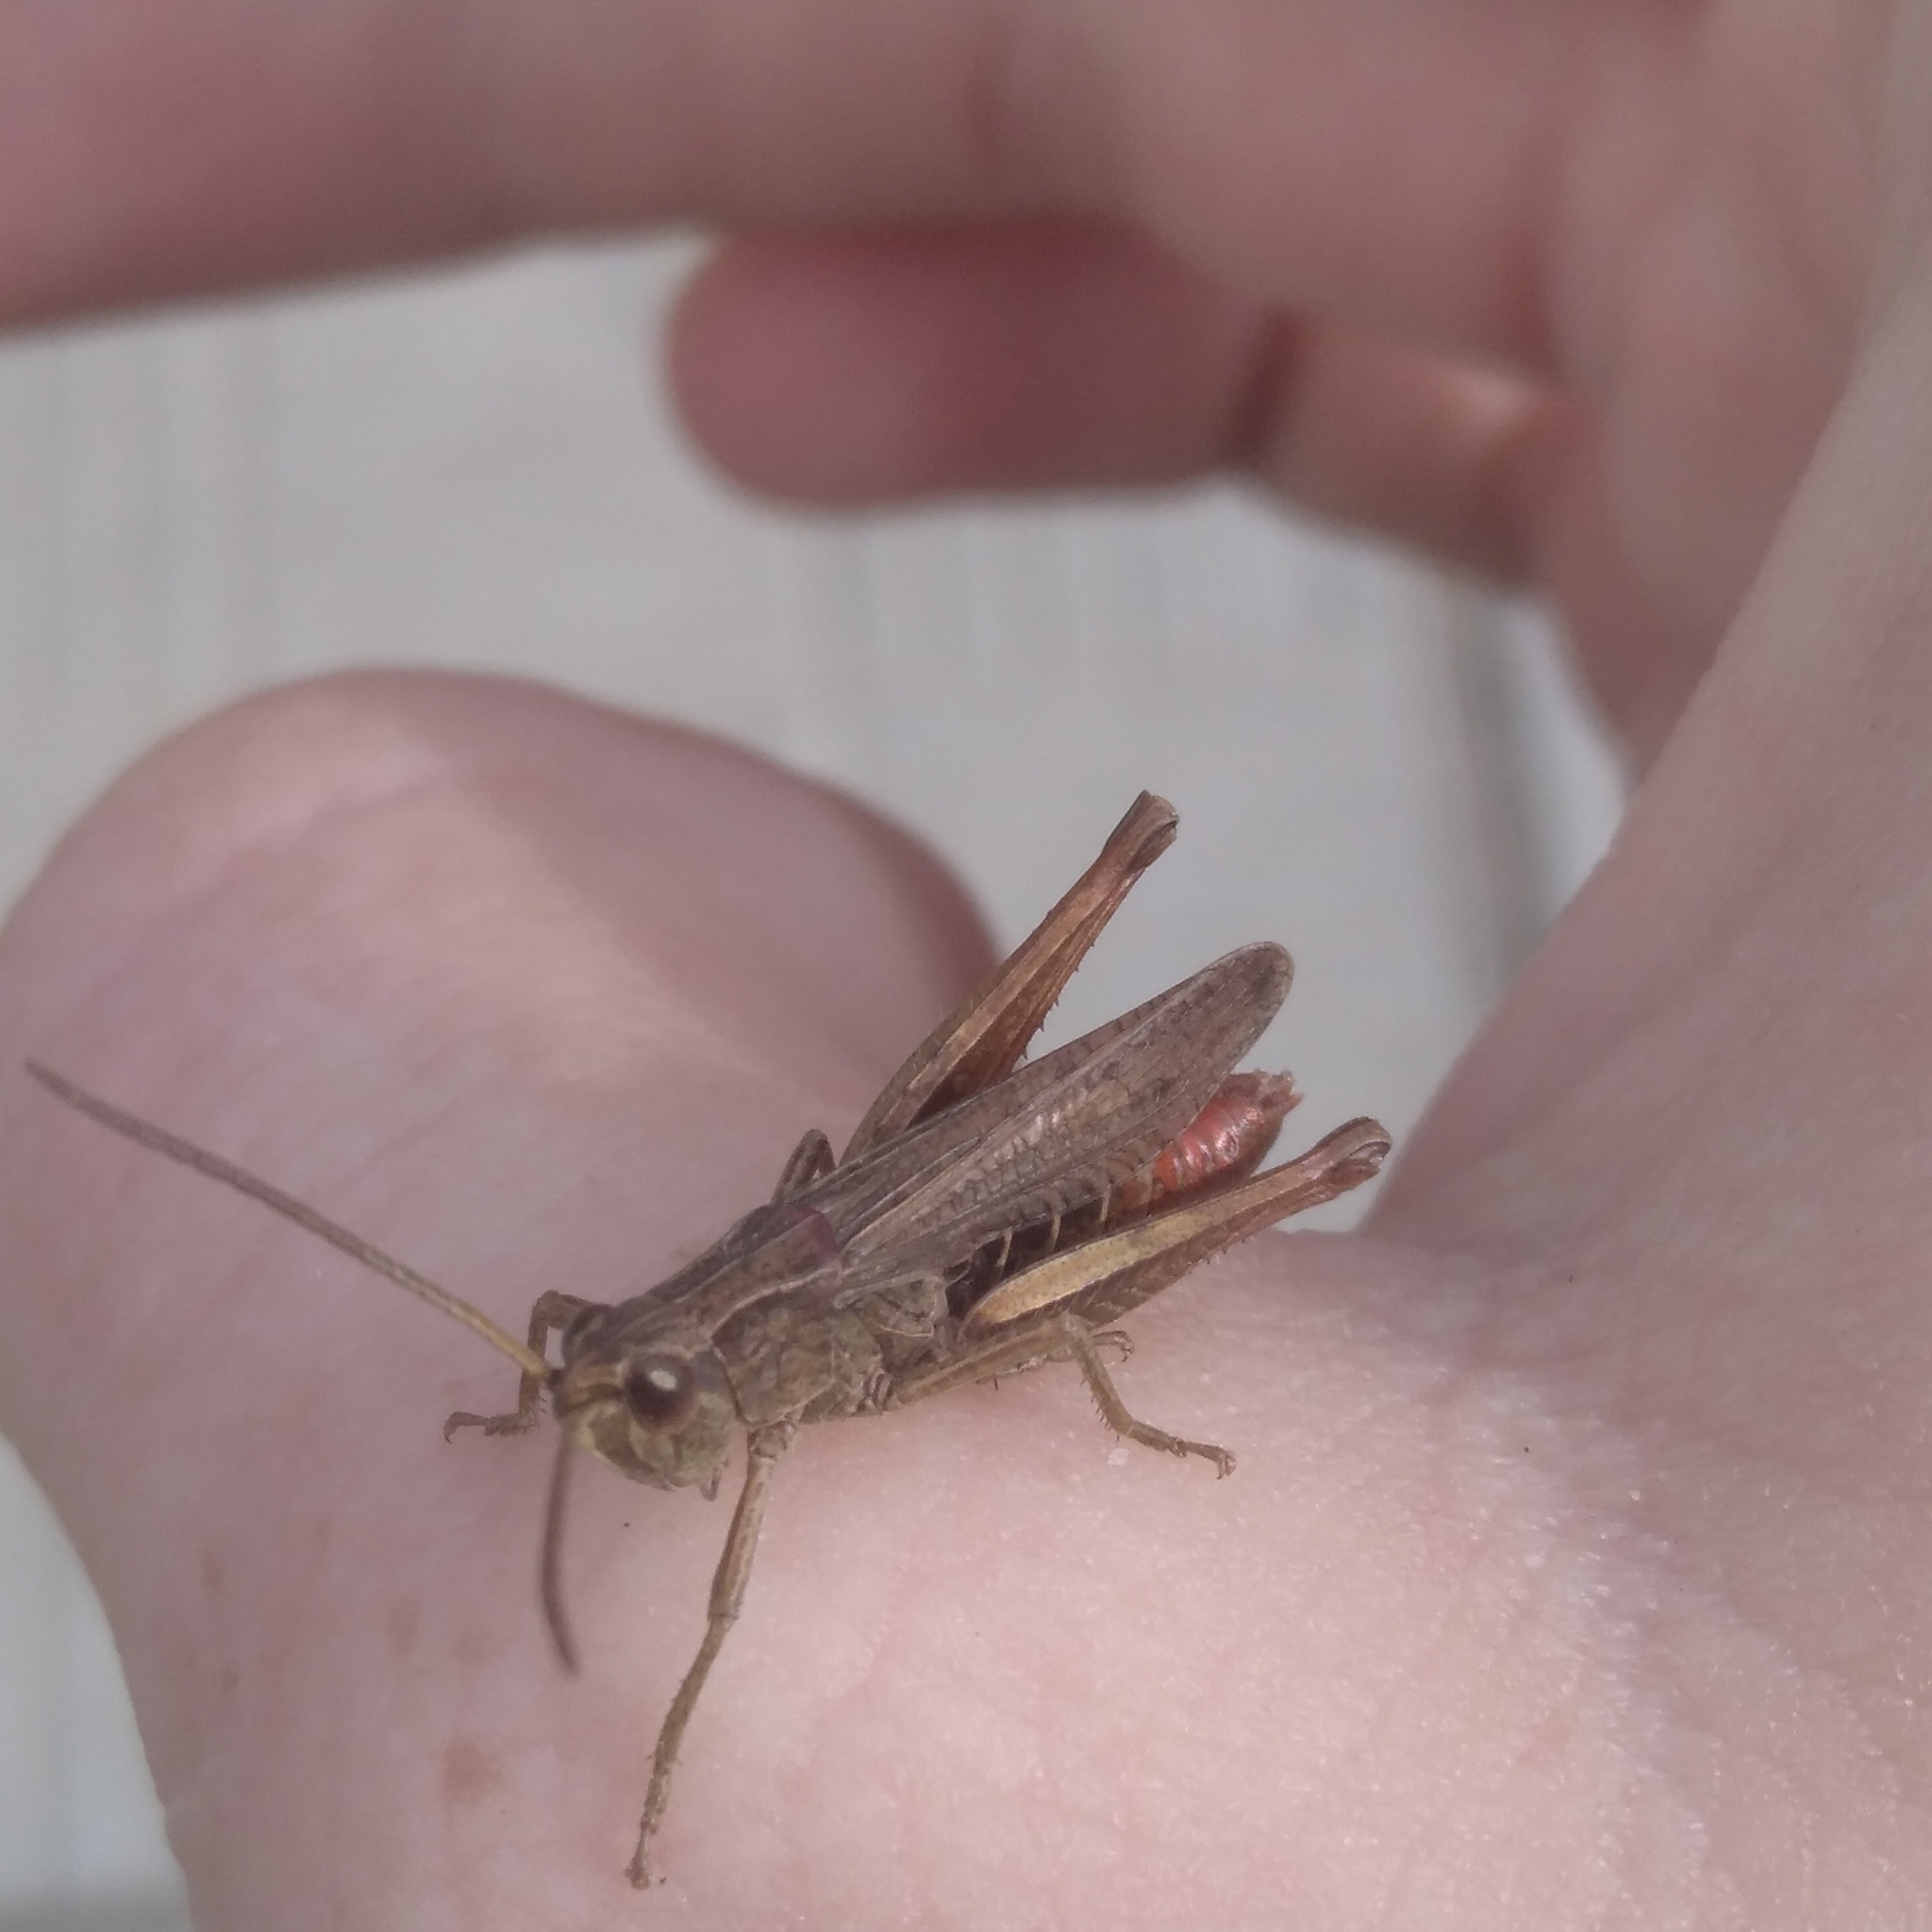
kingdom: Animalia
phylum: Arthropoda
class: Insecta
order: Orthoptera
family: Acrididae
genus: Chorthippus
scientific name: Chorthippus dorsatus
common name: Steppe grasshopper
